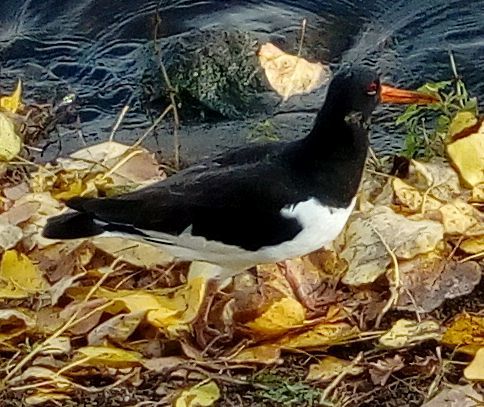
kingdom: Animalia
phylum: Chordata
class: Aves
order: Charadriiformes
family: Haematopodidae
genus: Haematopus
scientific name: Haematopus ostralegus
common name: Eurasian oystercatcher
